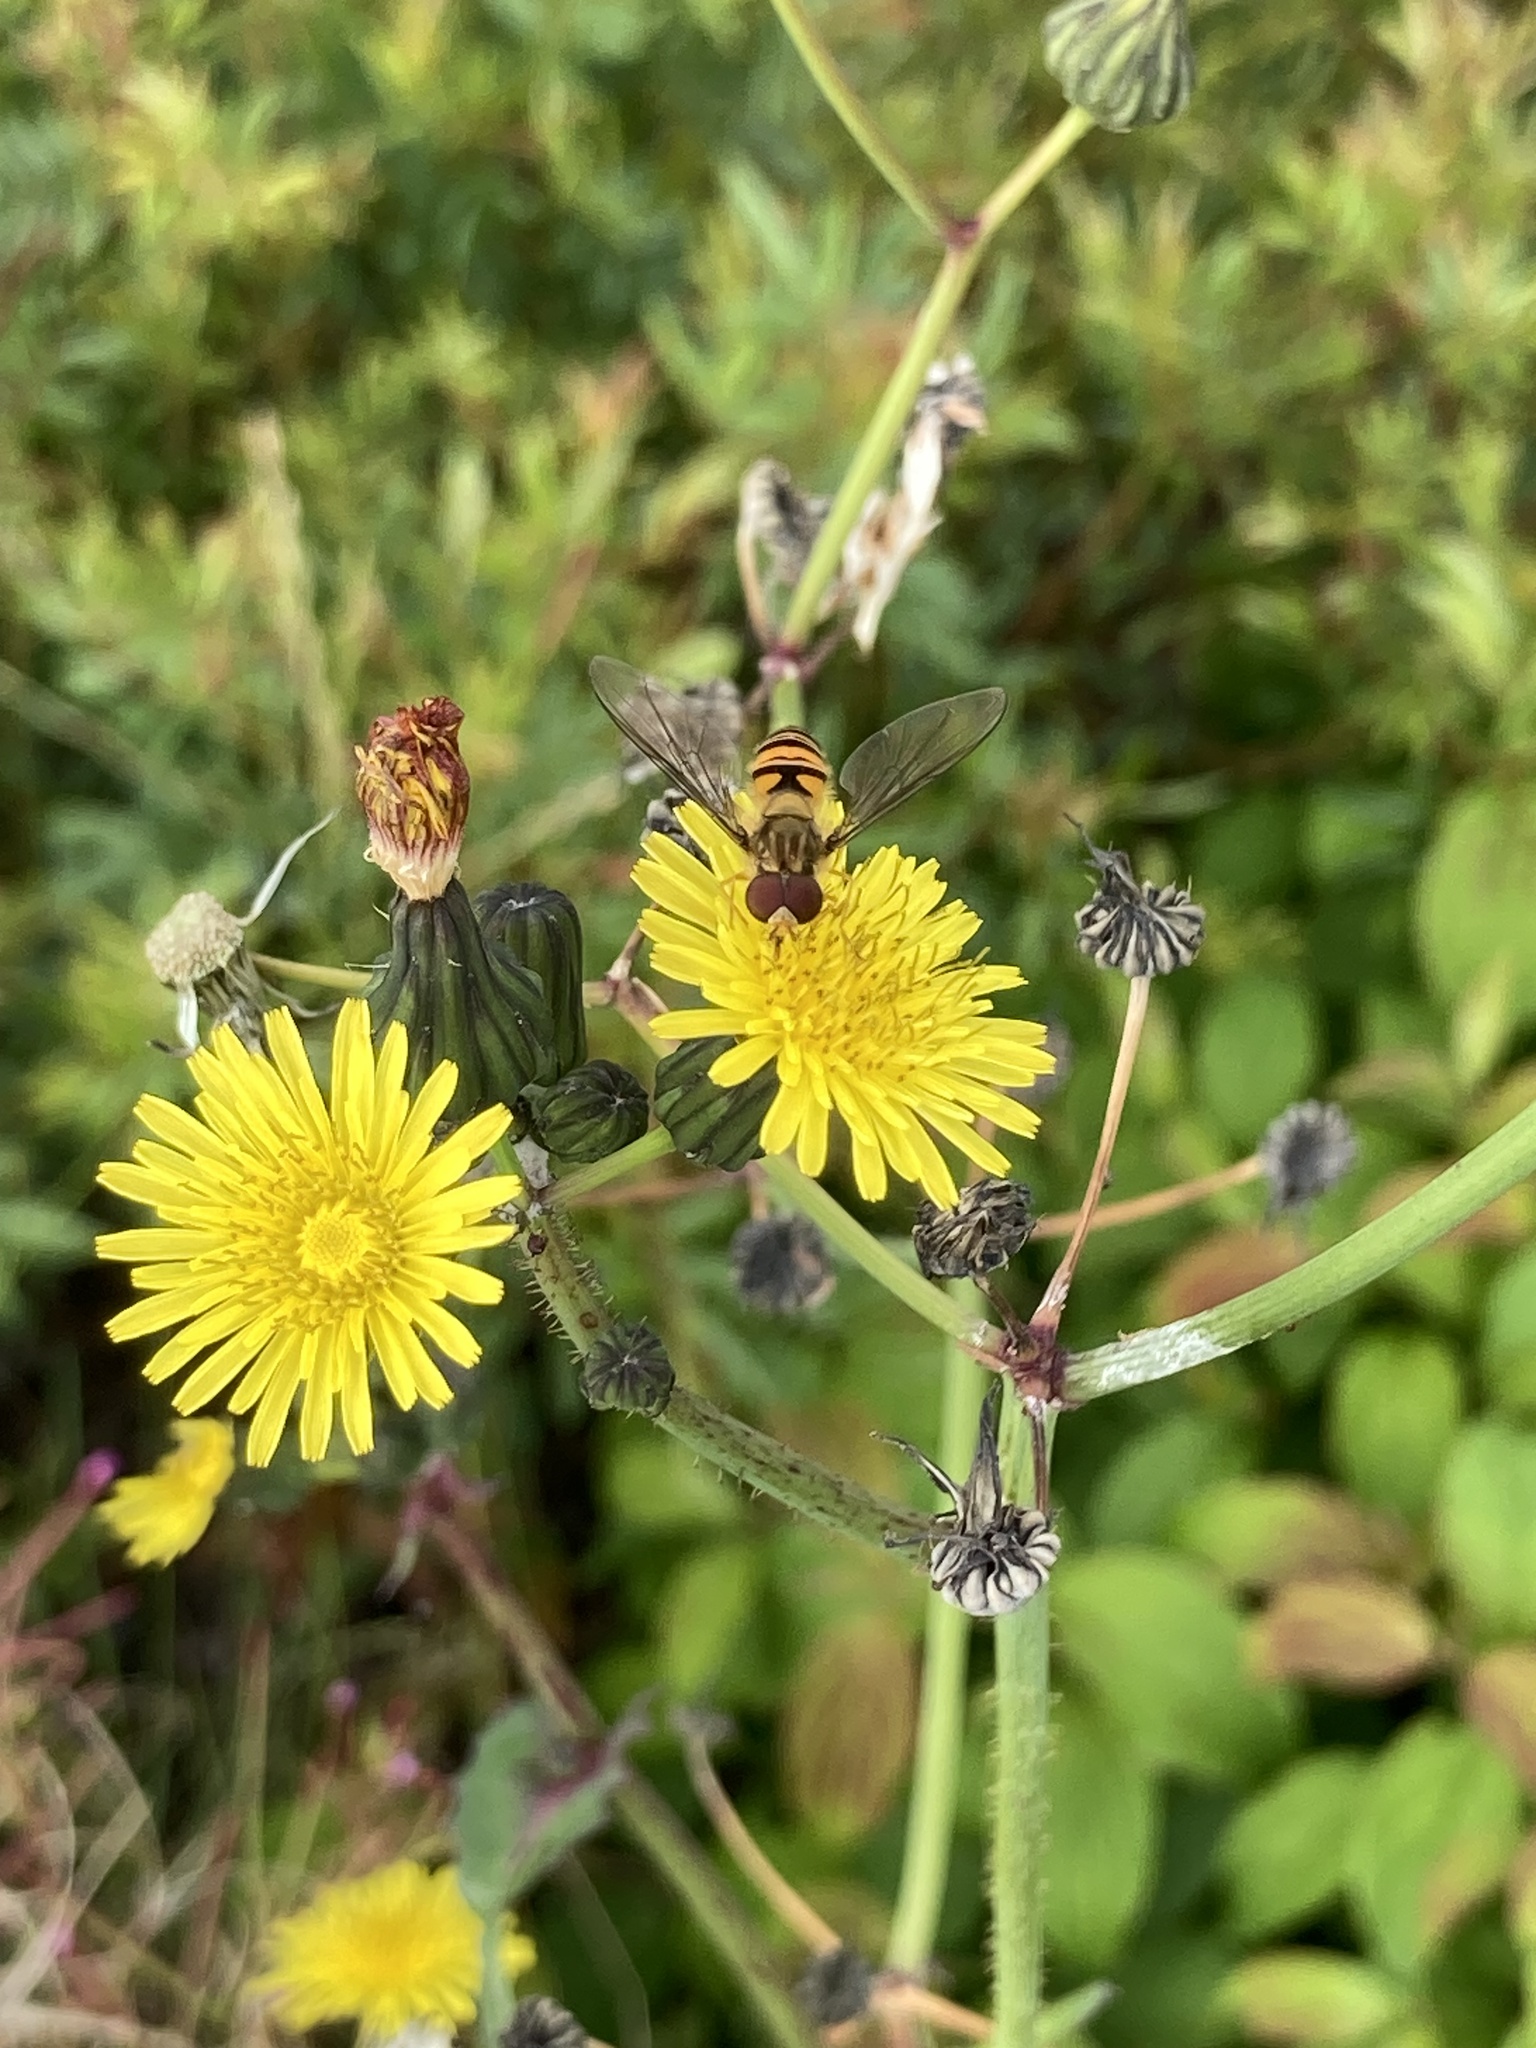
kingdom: Animalia
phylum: Arthropoda
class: Insecta
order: Diptera
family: Syrphidae
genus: Episyrphus
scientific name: Episyrphus balteatus
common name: Marmalade hoverfly
